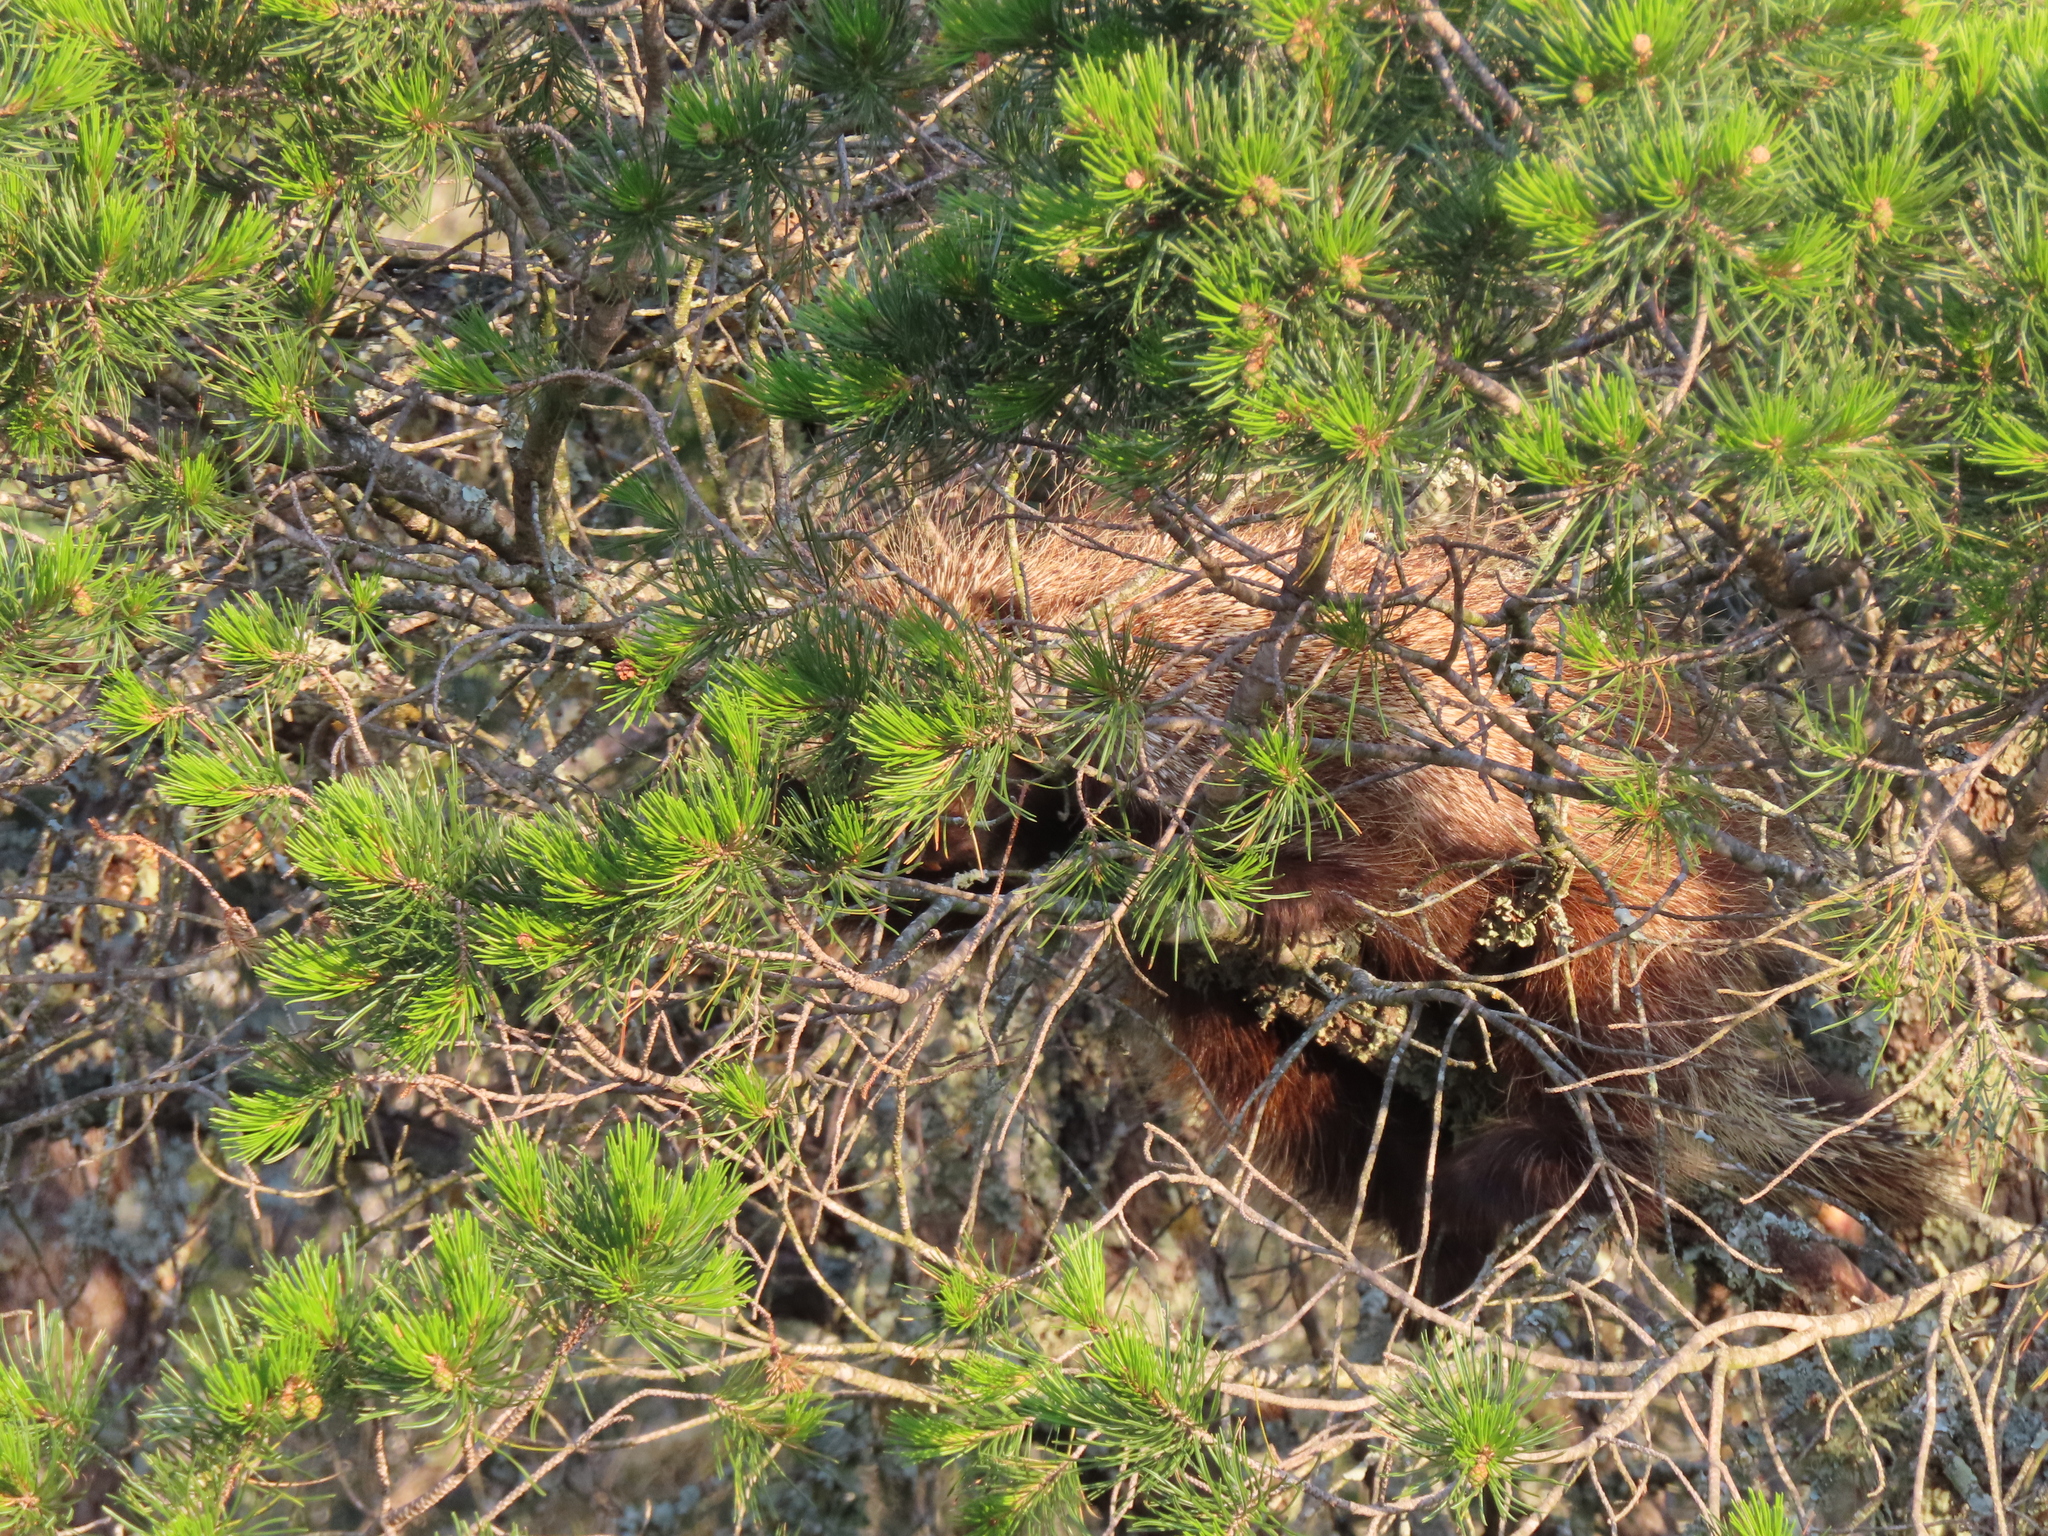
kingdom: Animalia
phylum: Chordata
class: Mammalia
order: Rodentia
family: Erethizontidae
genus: Erethizon
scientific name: Erethizon dorsatus
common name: North american porcupine
